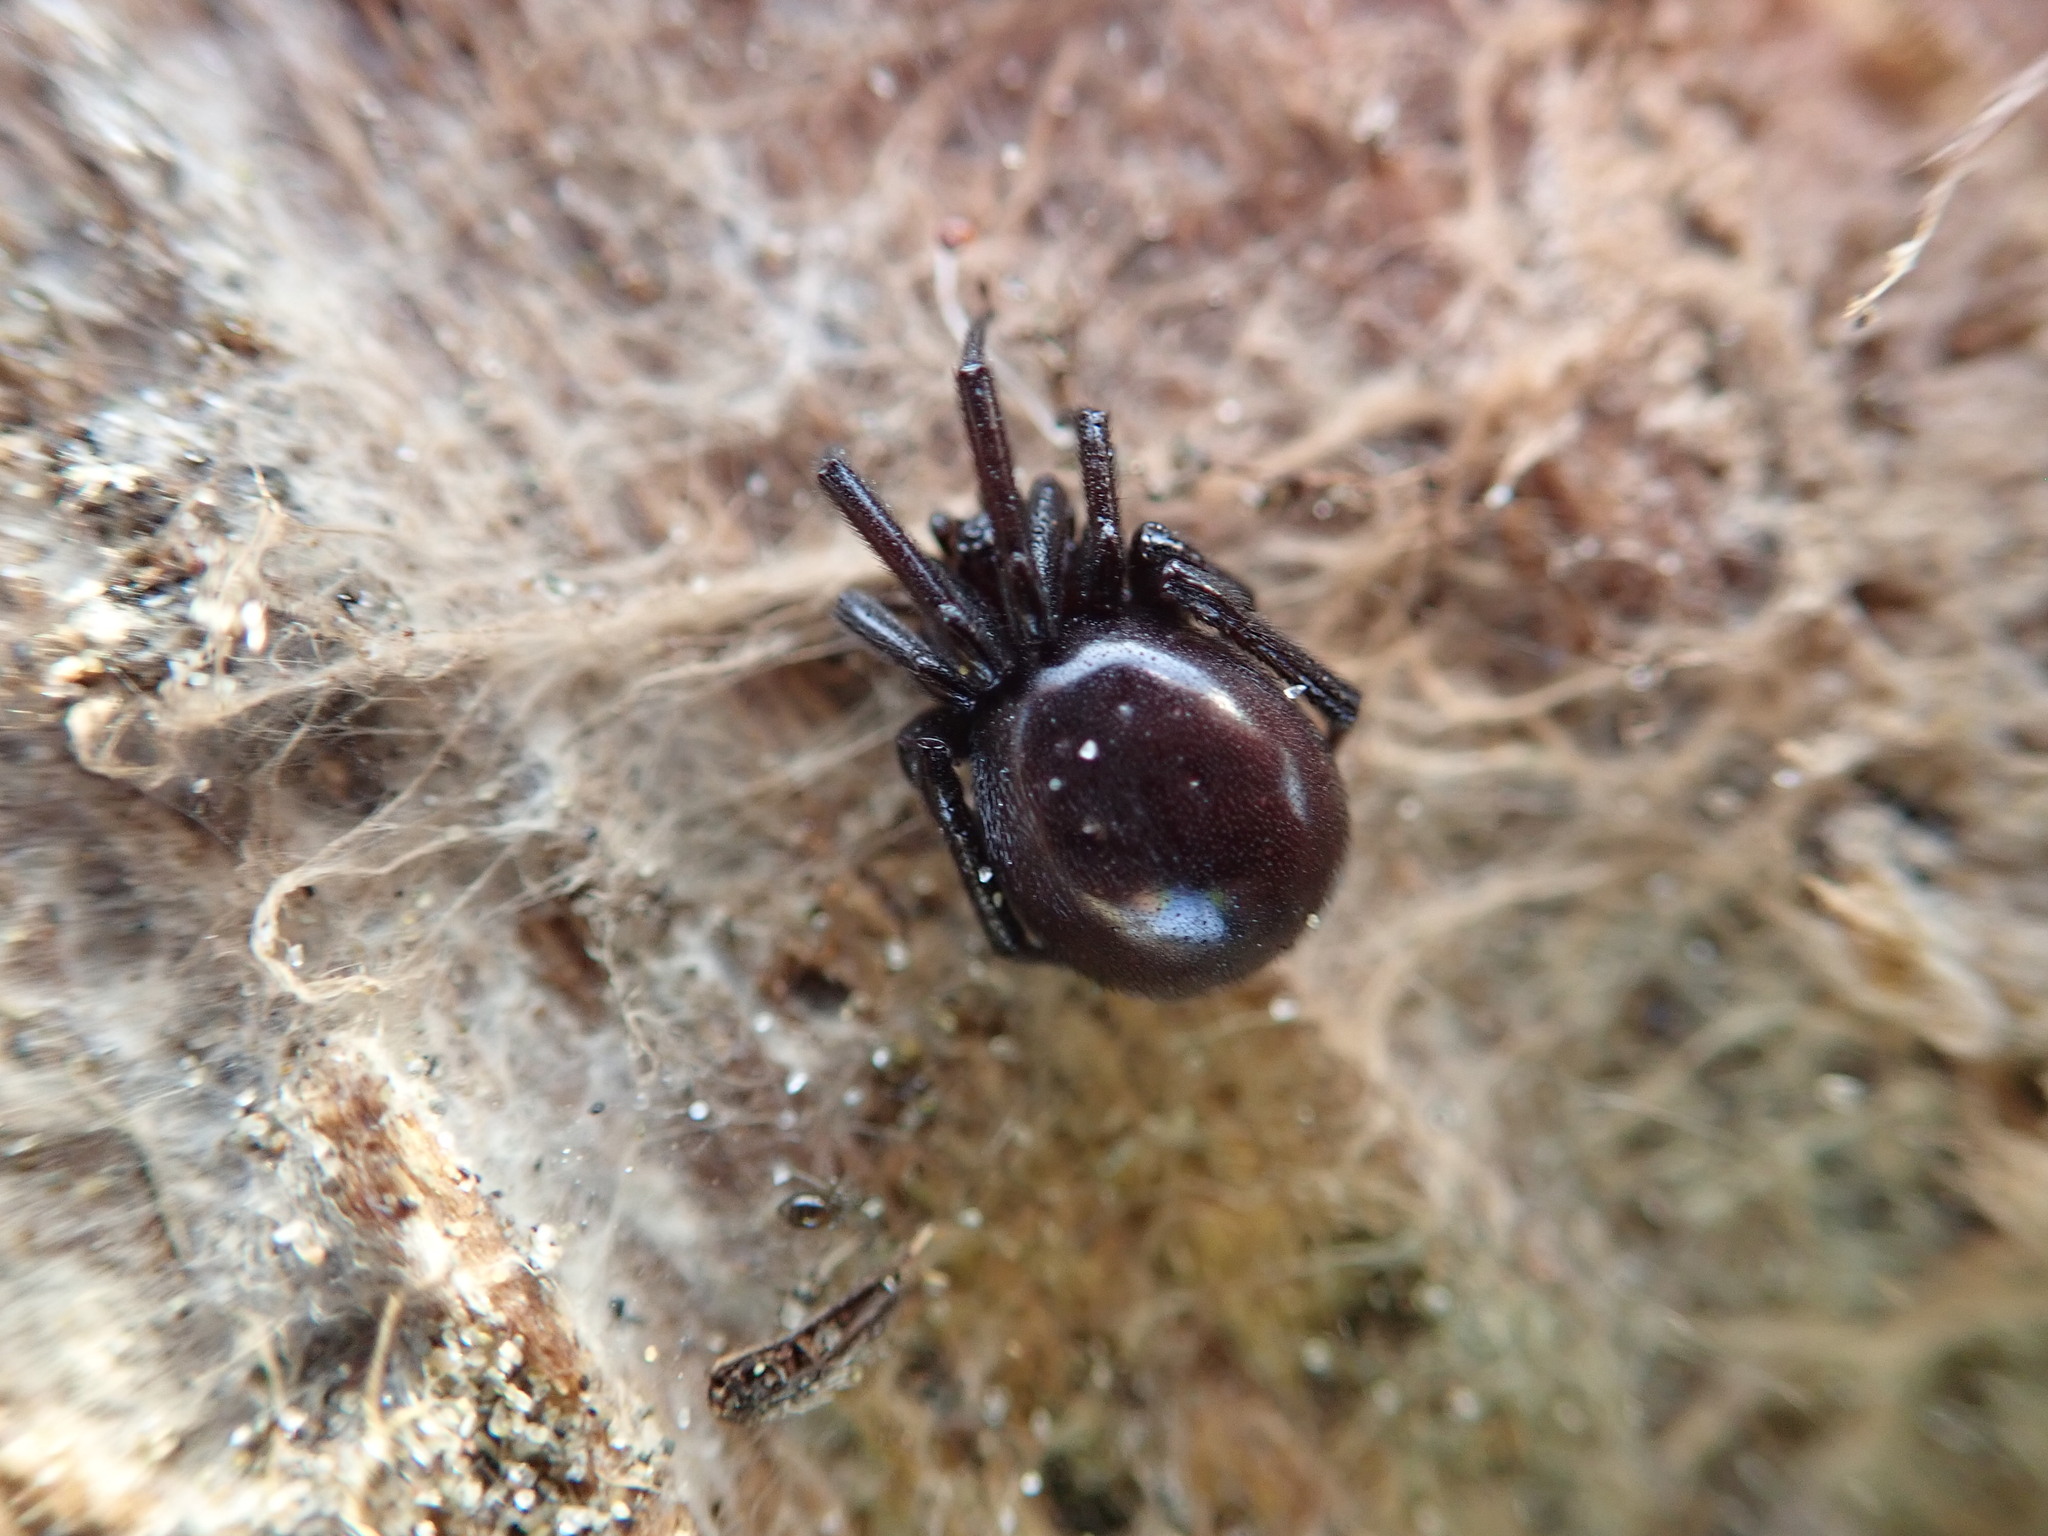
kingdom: Animalia
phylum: Arthropoda
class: Arachnida
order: Araneae
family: Theridiidae
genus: Steatoda
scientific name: Steatoda capensis
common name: Cobweb weaver
